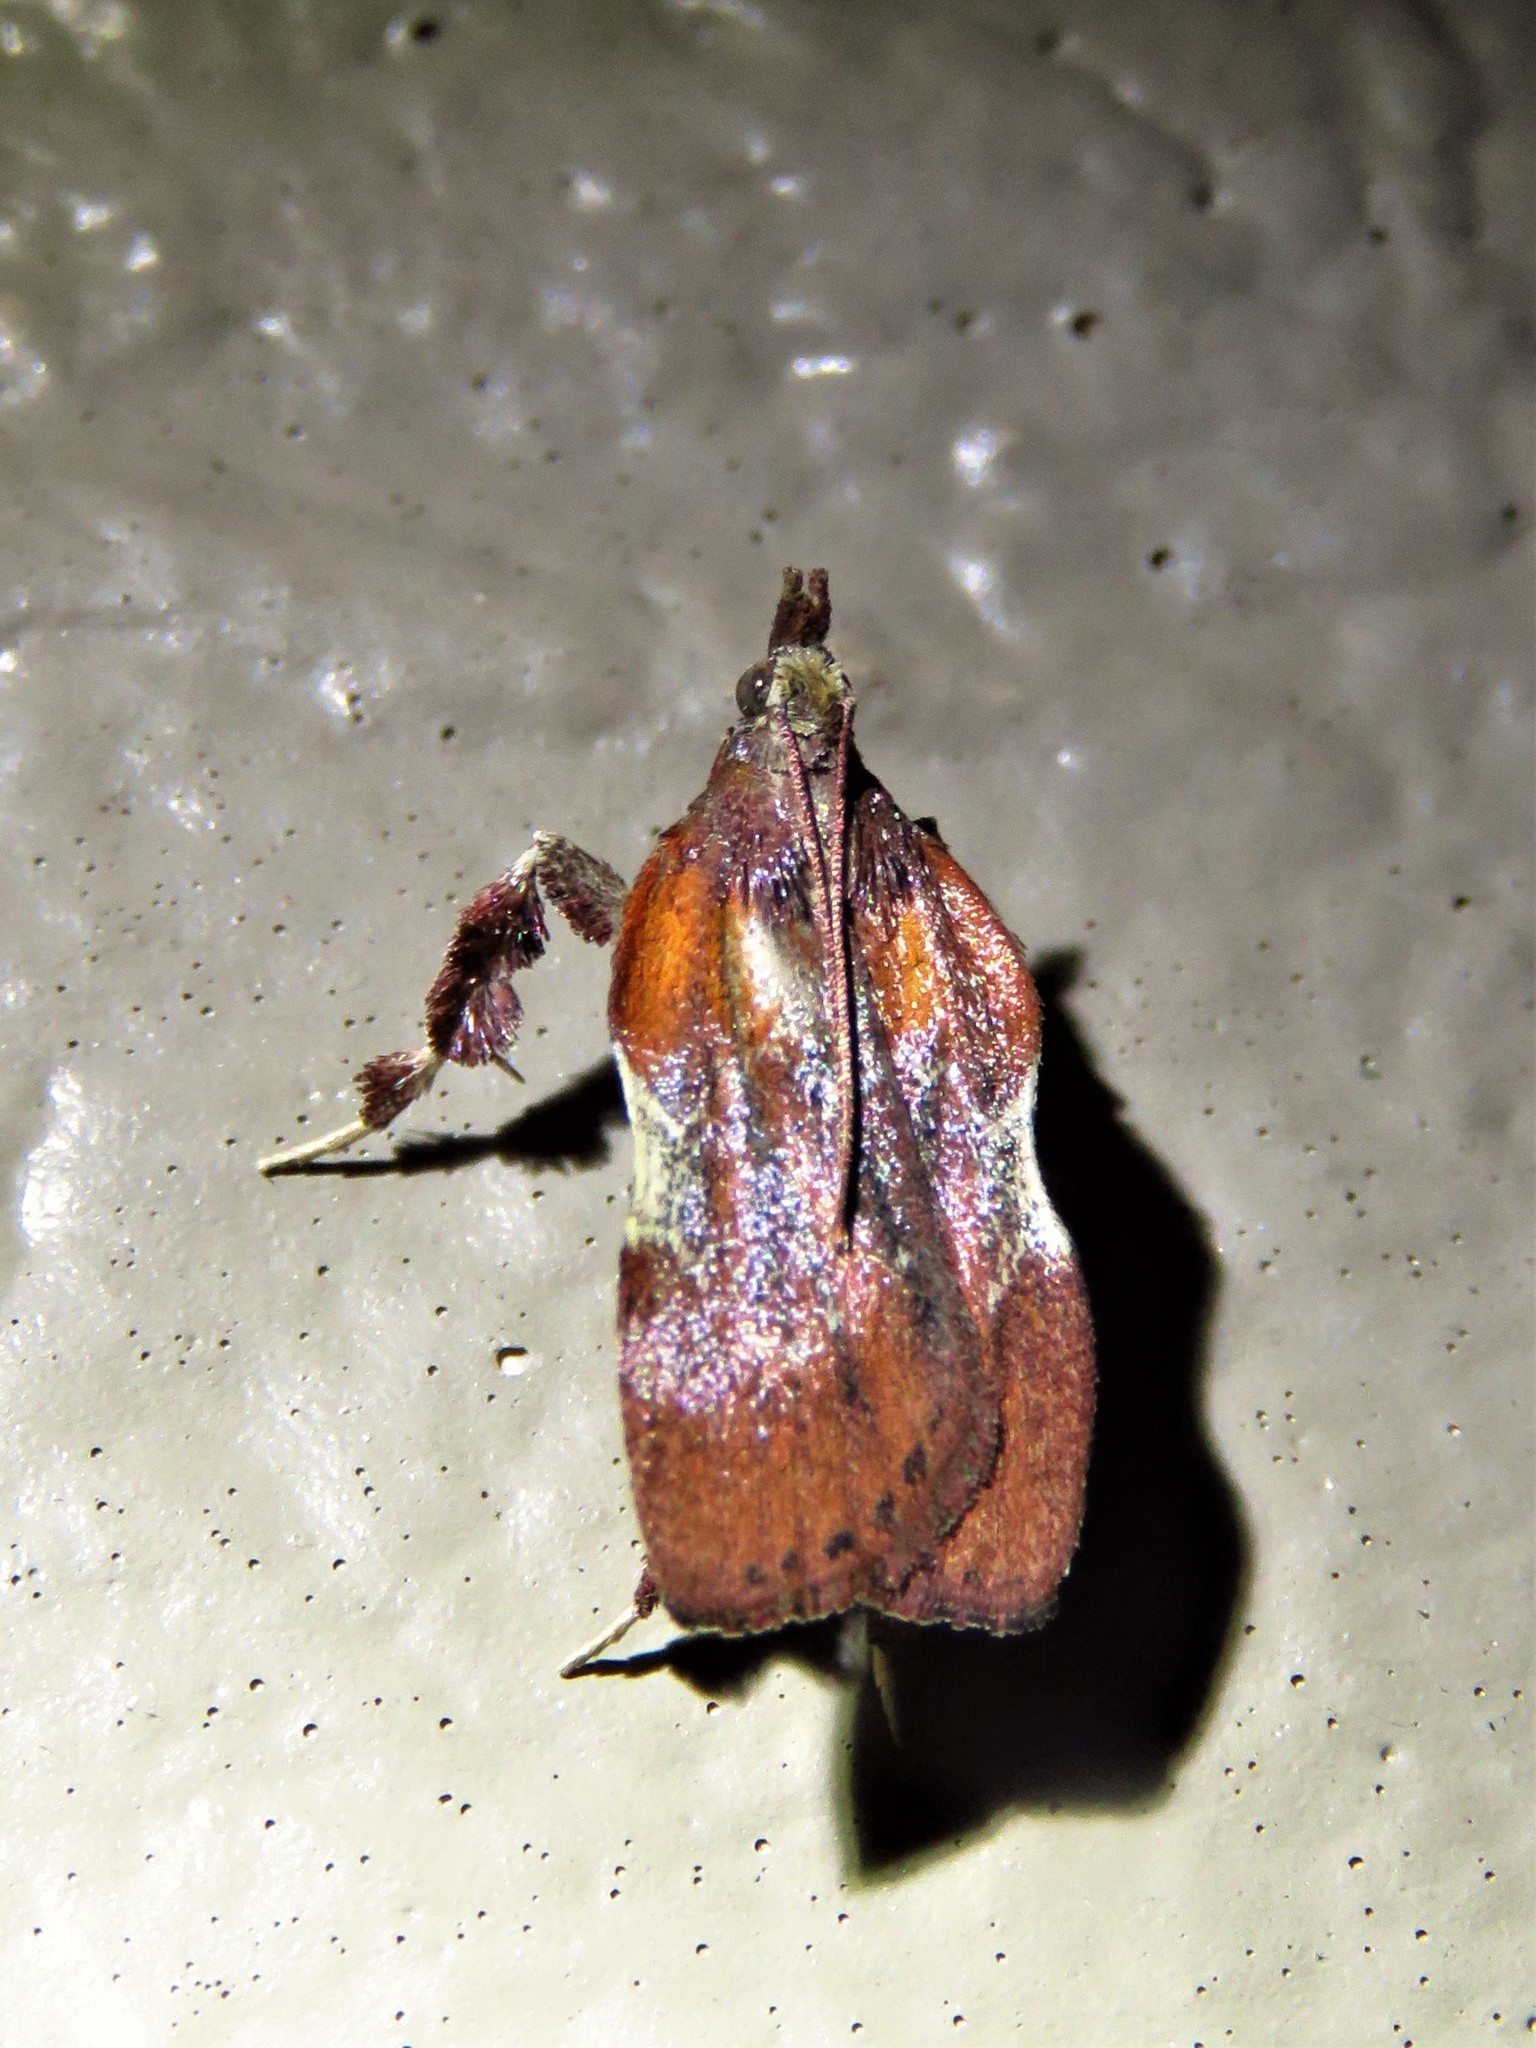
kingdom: Animalia
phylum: Arthropoda
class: Insecta
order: Lepidoptera
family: Pyralidae
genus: Galasa
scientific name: Galasa nigrinodis
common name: Boxwood leaftier moth
